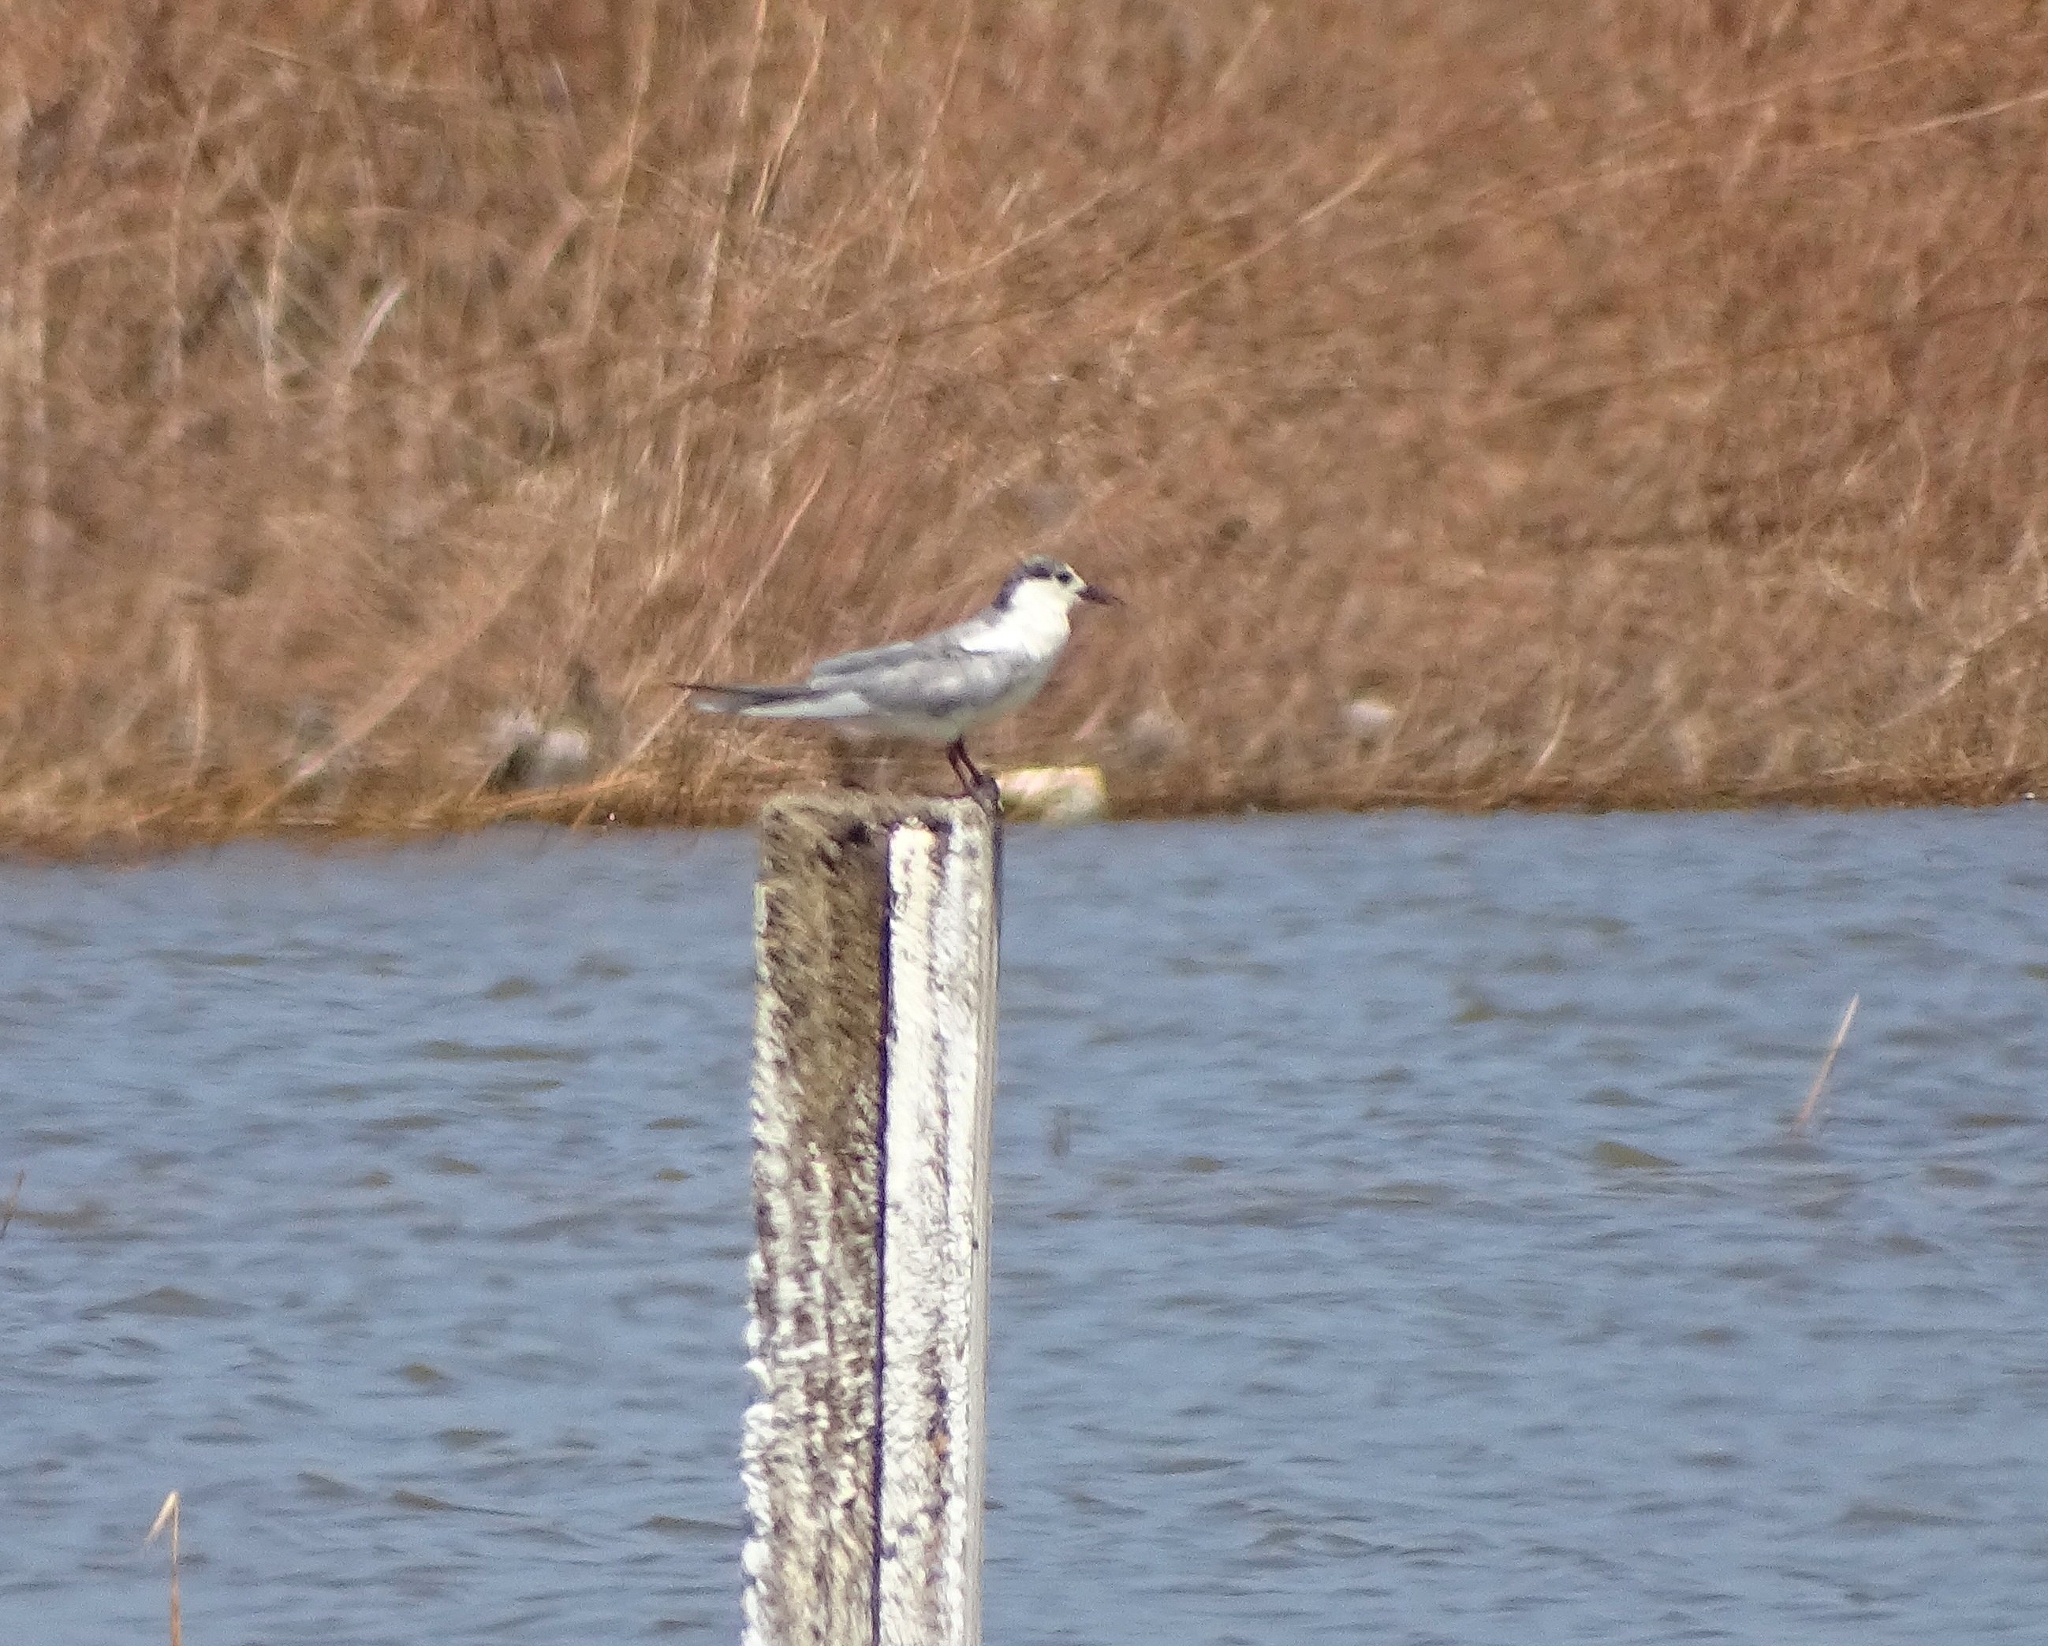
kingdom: Animalia
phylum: Chordata
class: Aves
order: Charadriiformes
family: Laridae
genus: Chlidonias
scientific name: Chlidonias hybrida
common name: Whiskered tern
